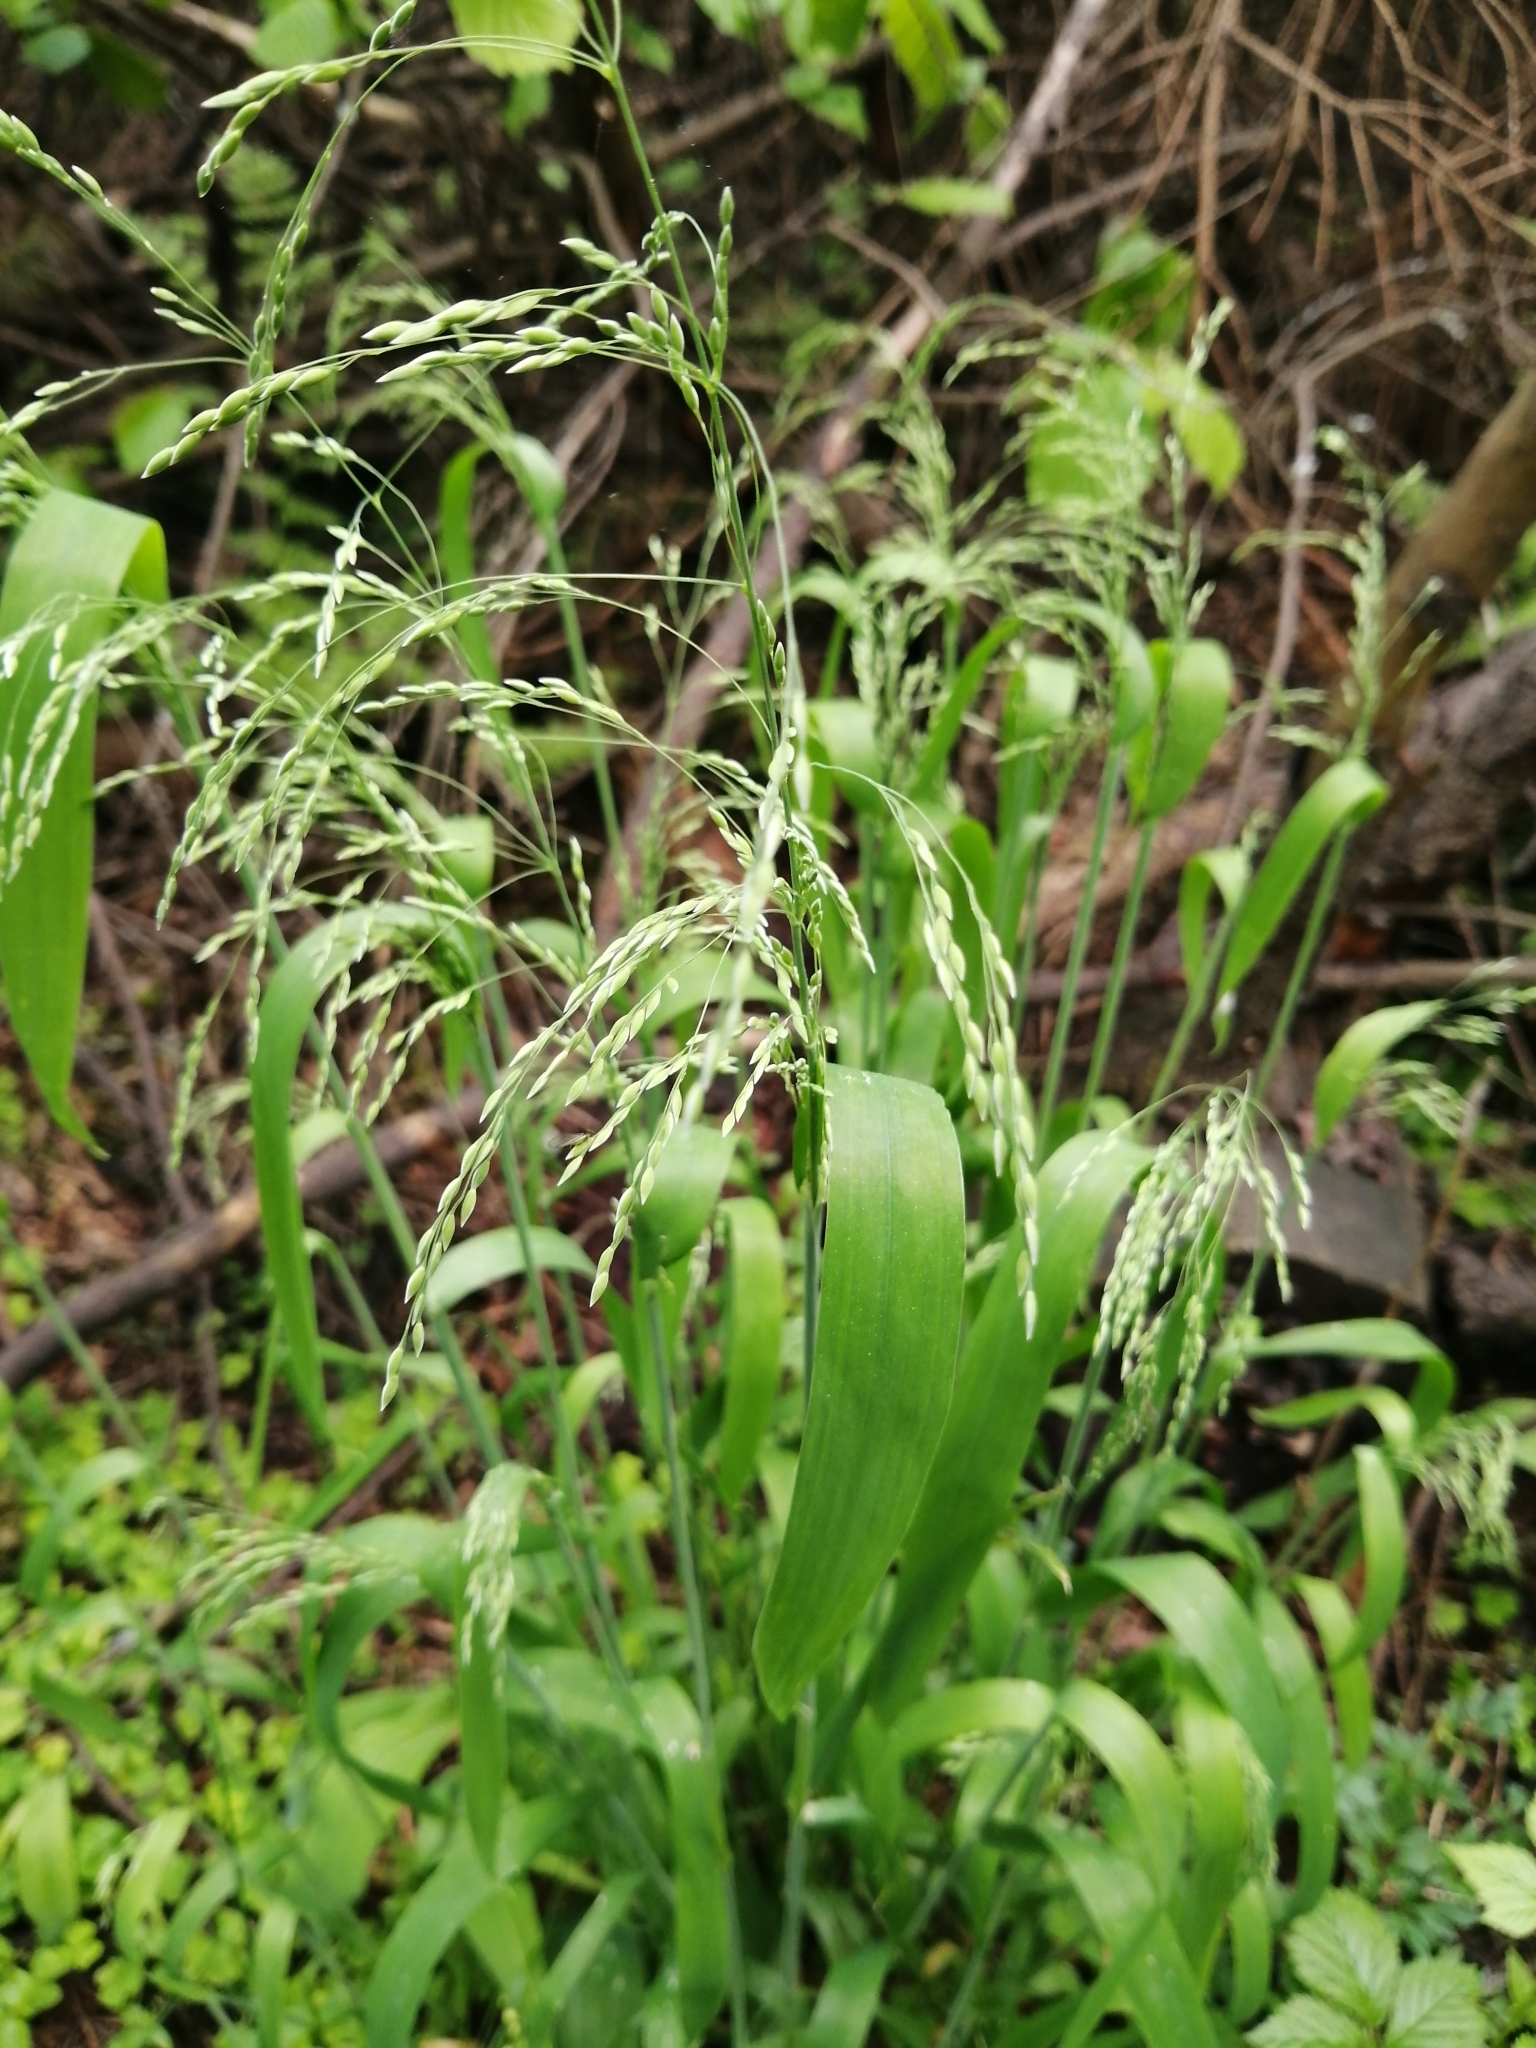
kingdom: Plantae
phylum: Tracheophyta
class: Liliopsida
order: Poales
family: Poaceae
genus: Milium
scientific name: Milium effusum
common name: Wood millet
